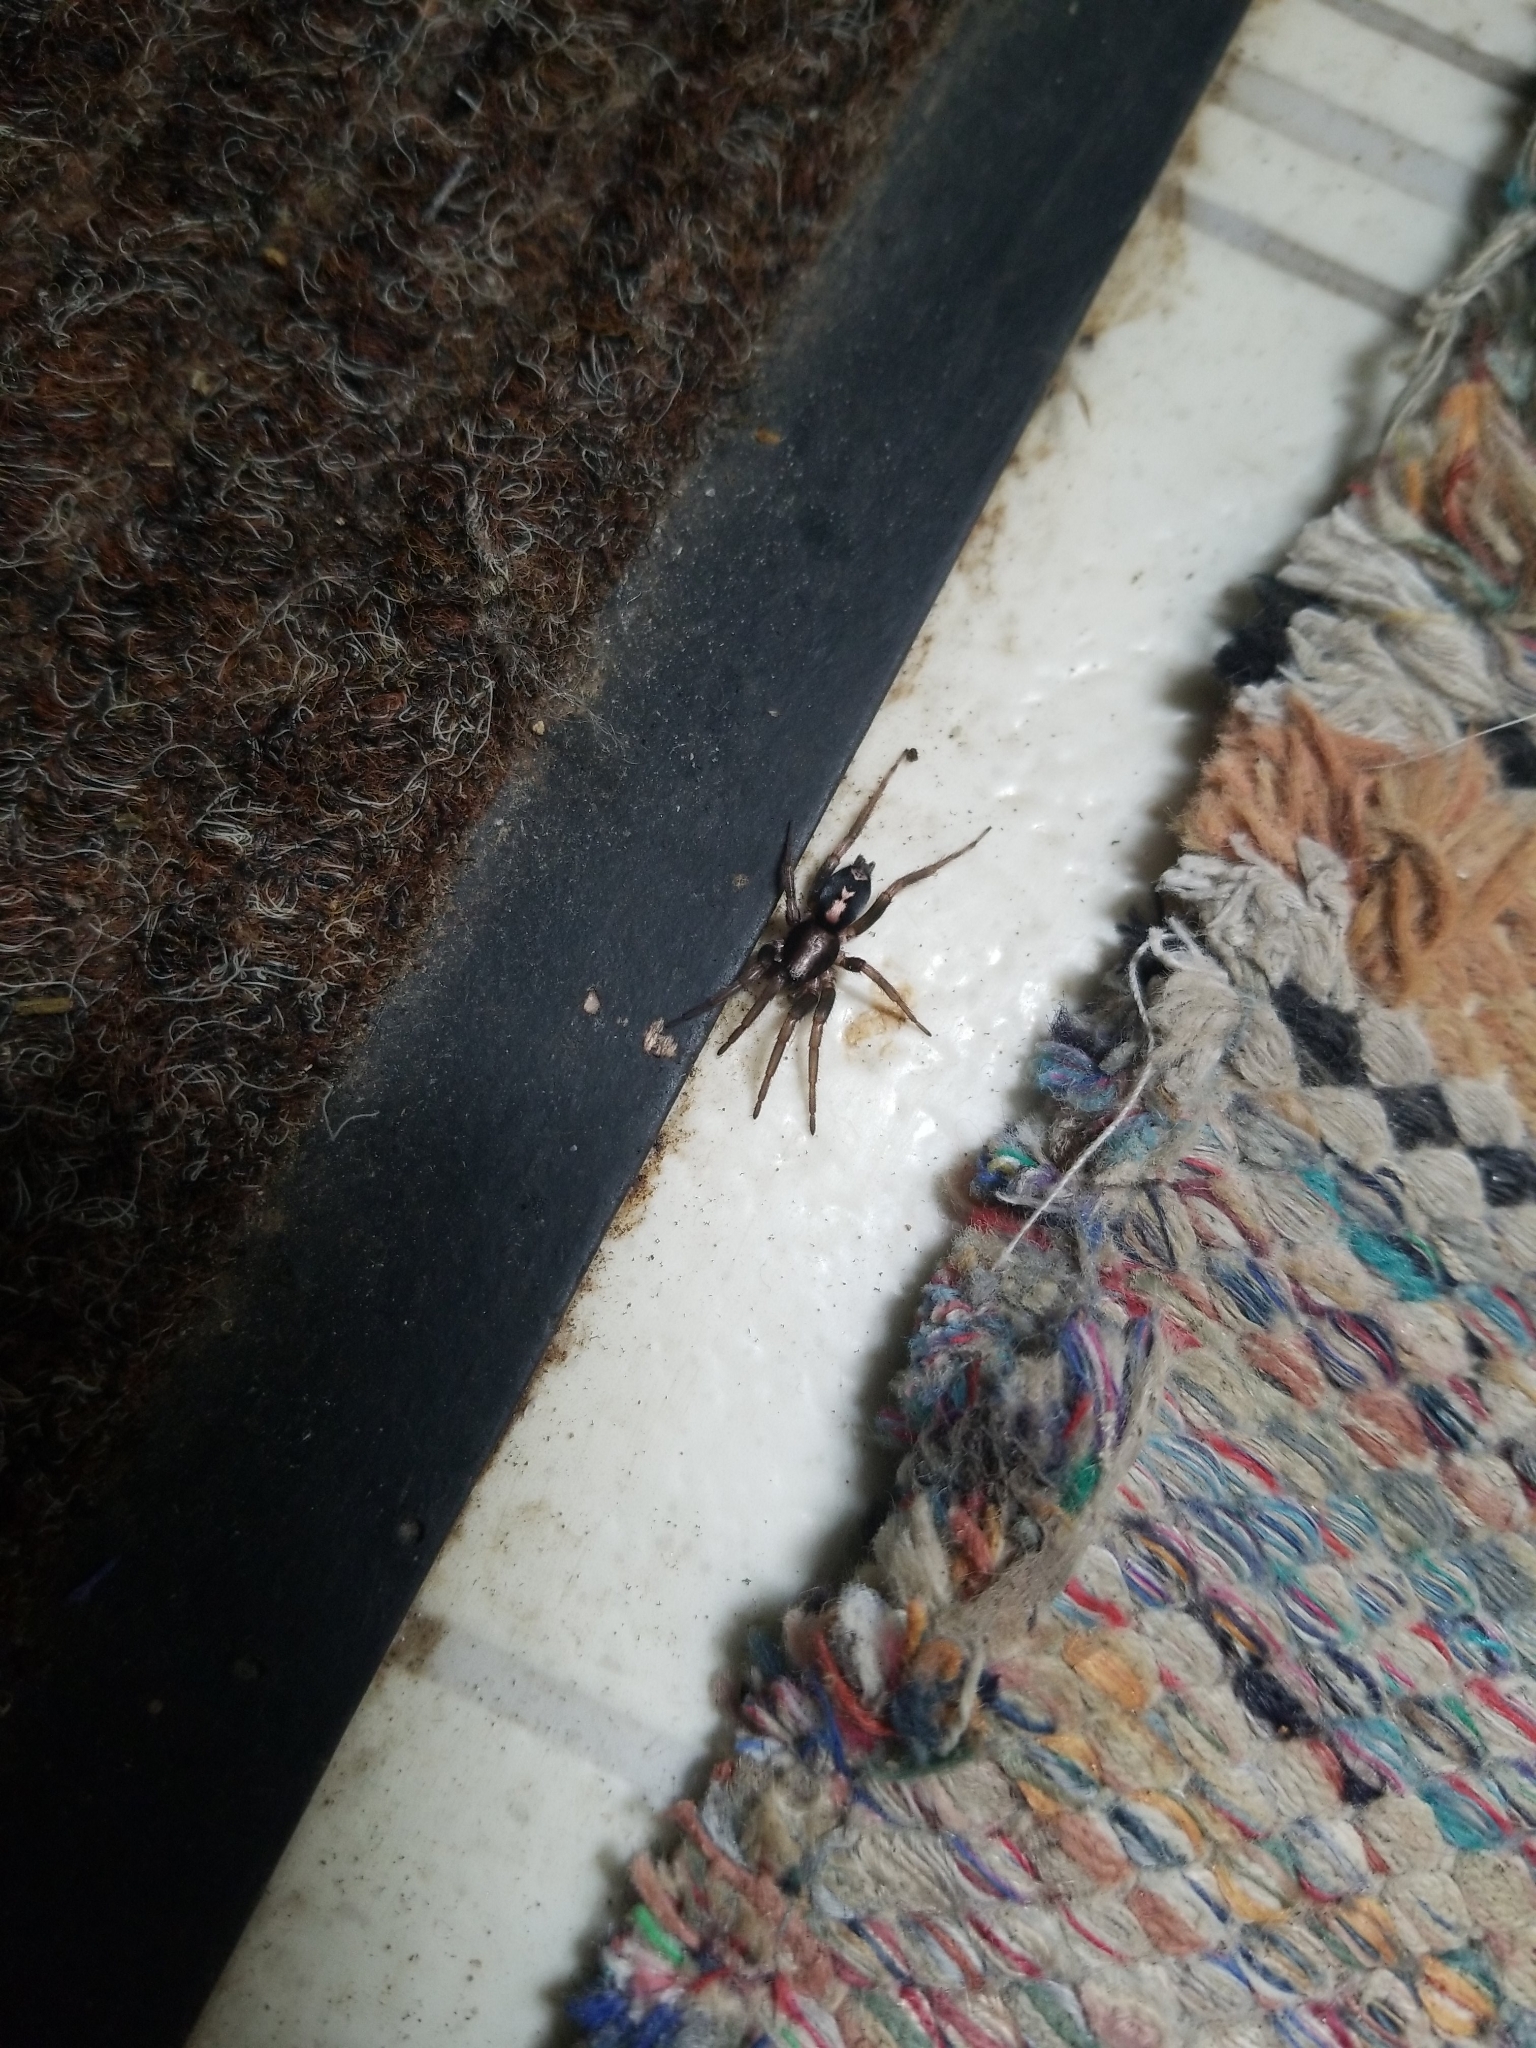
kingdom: Animalia
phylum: Arthropoda
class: Arachnida
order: Araneae
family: Gnaphosidae
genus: Herpyllus
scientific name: Herpyllus ecclesiasticus
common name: Eastern parson spider
